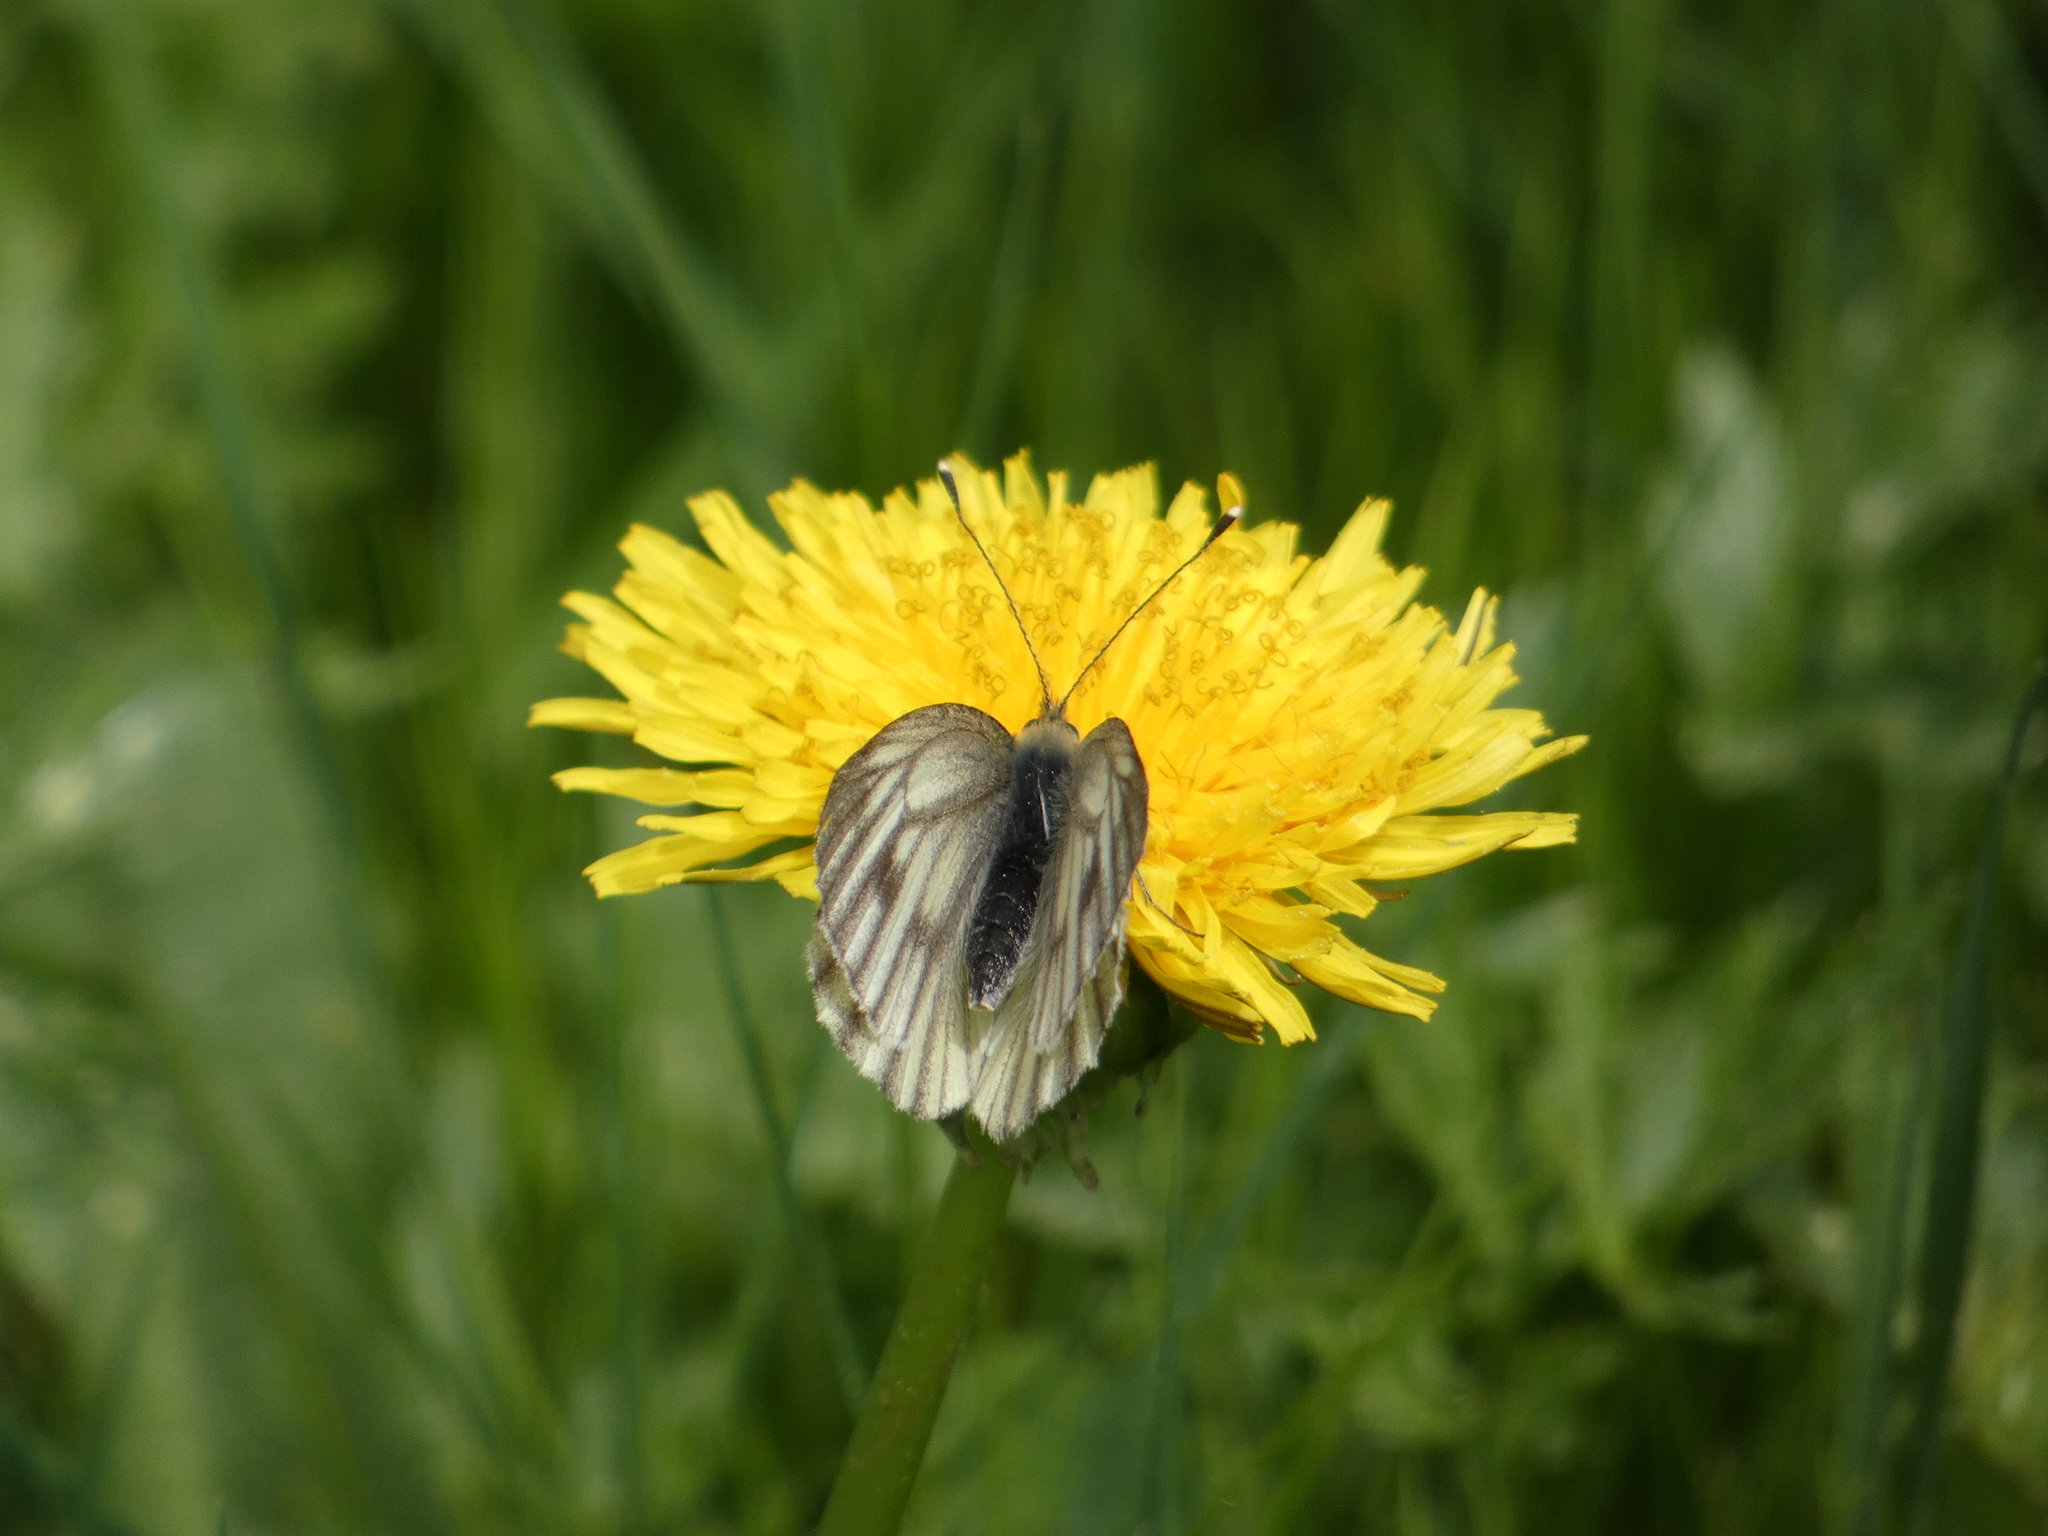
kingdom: Animalia
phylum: Arthropoda
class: Insecta
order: Lepidoptera
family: Pieridae
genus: Pieris
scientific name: Pieris bryoniae
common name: Mountain green-veined white
